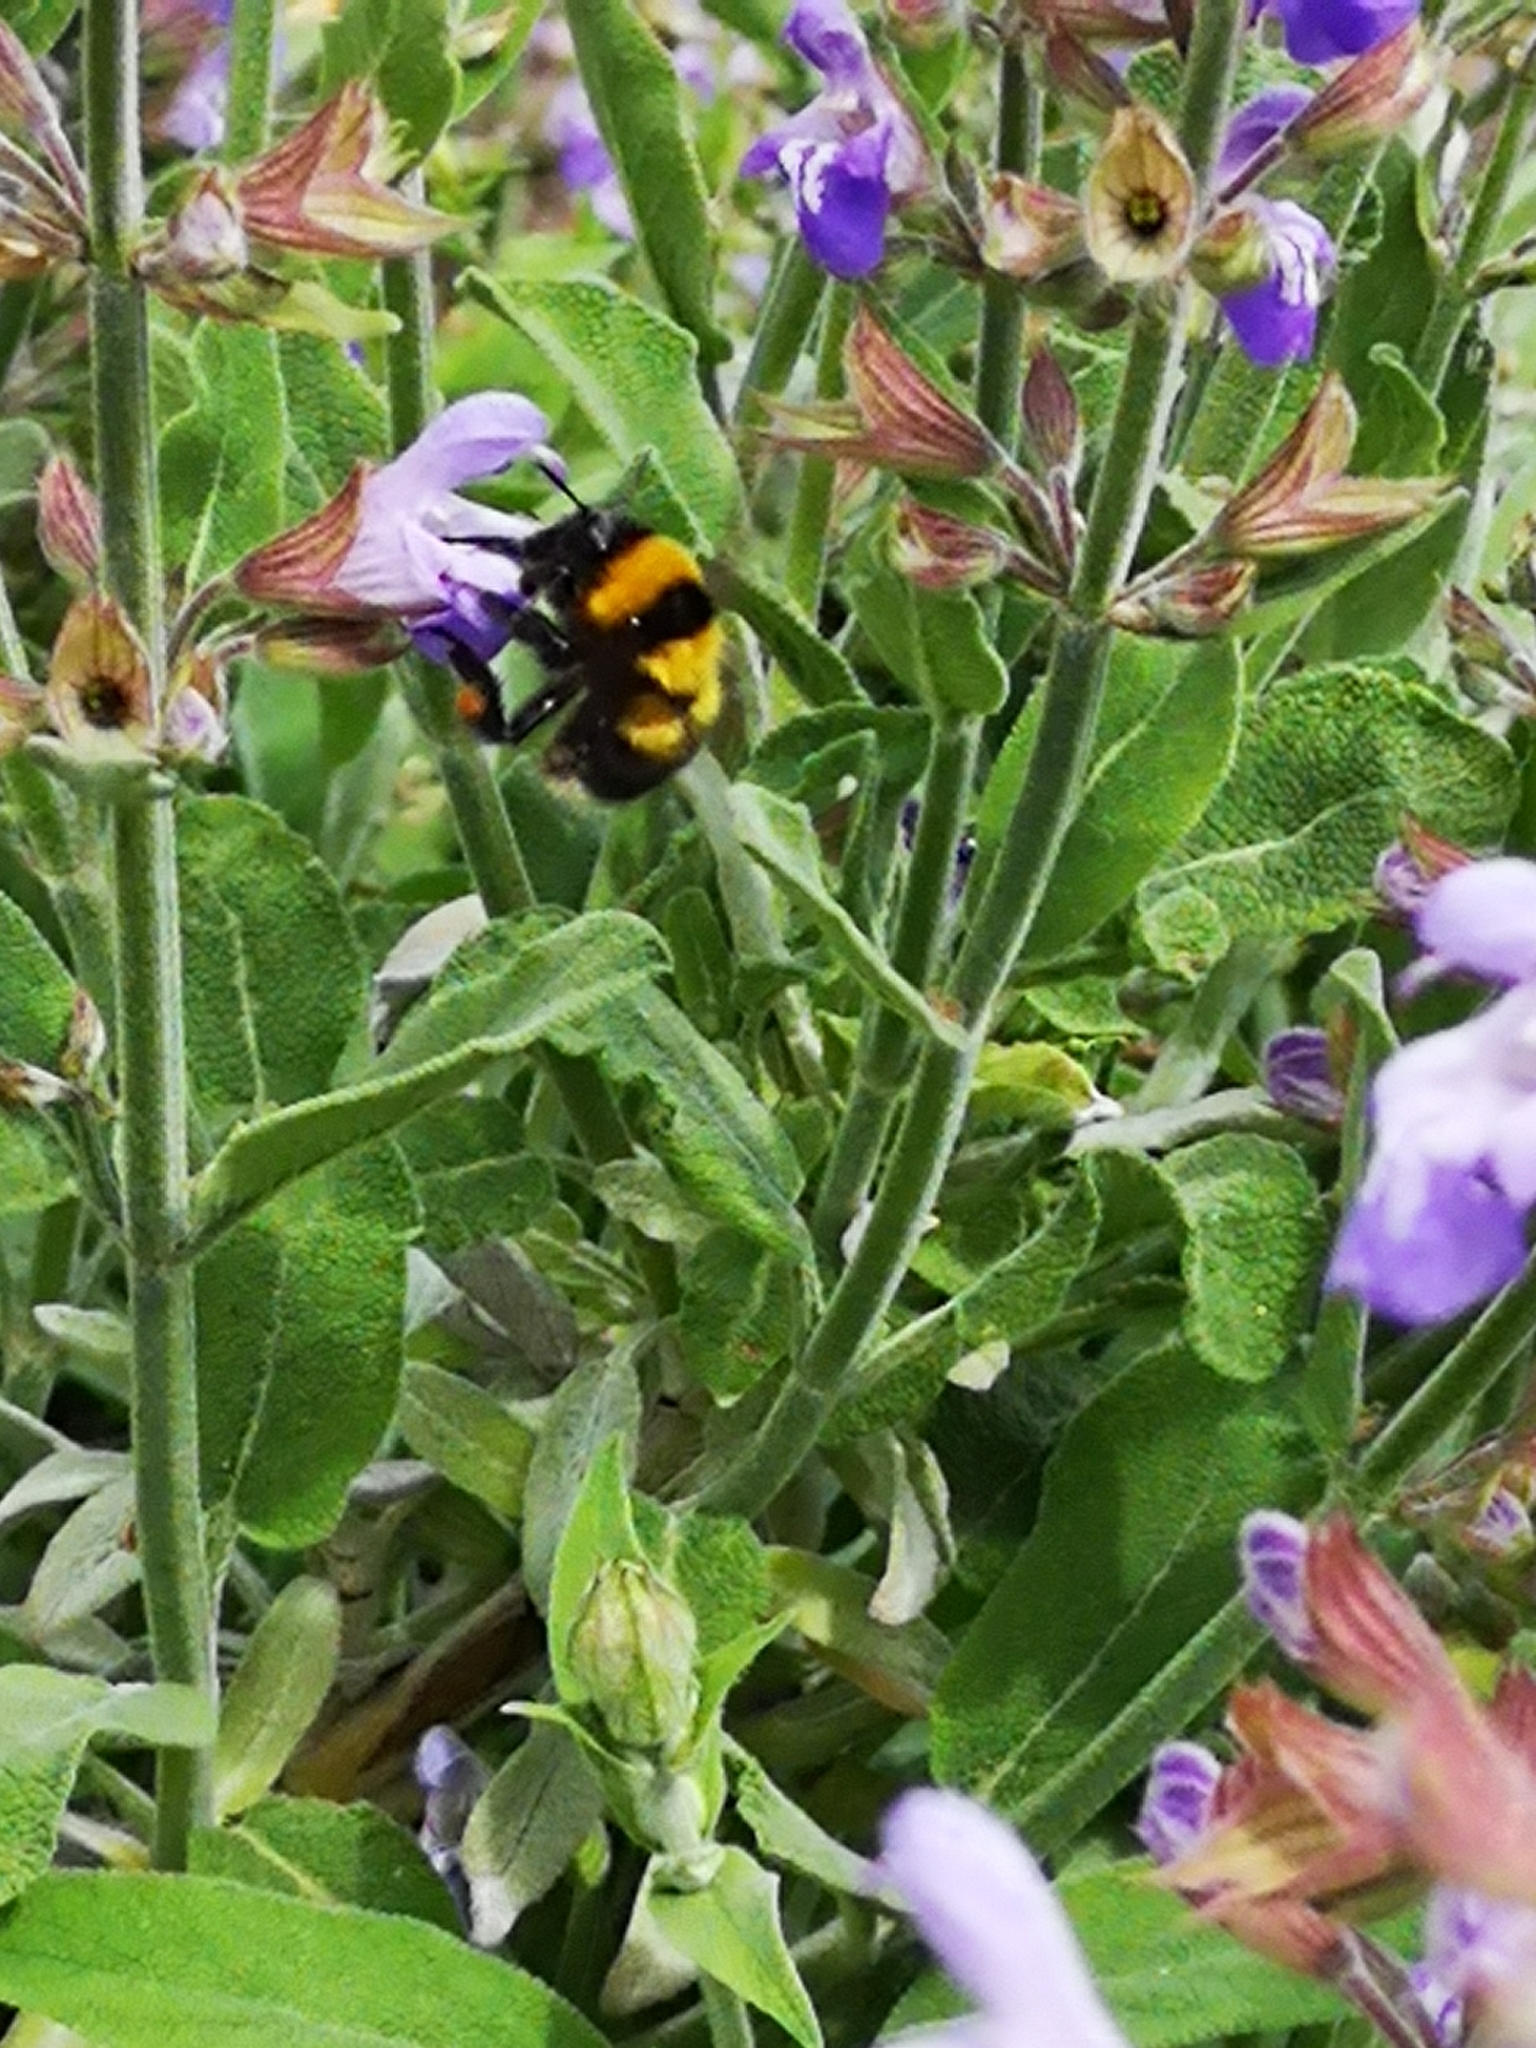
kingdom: Animalia
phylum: Arthropoda
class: Insecta
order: Hymenoptera
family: Apidae
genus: Bombus
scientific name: Bombus terrestris
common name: Buff-tailed bumblebee
